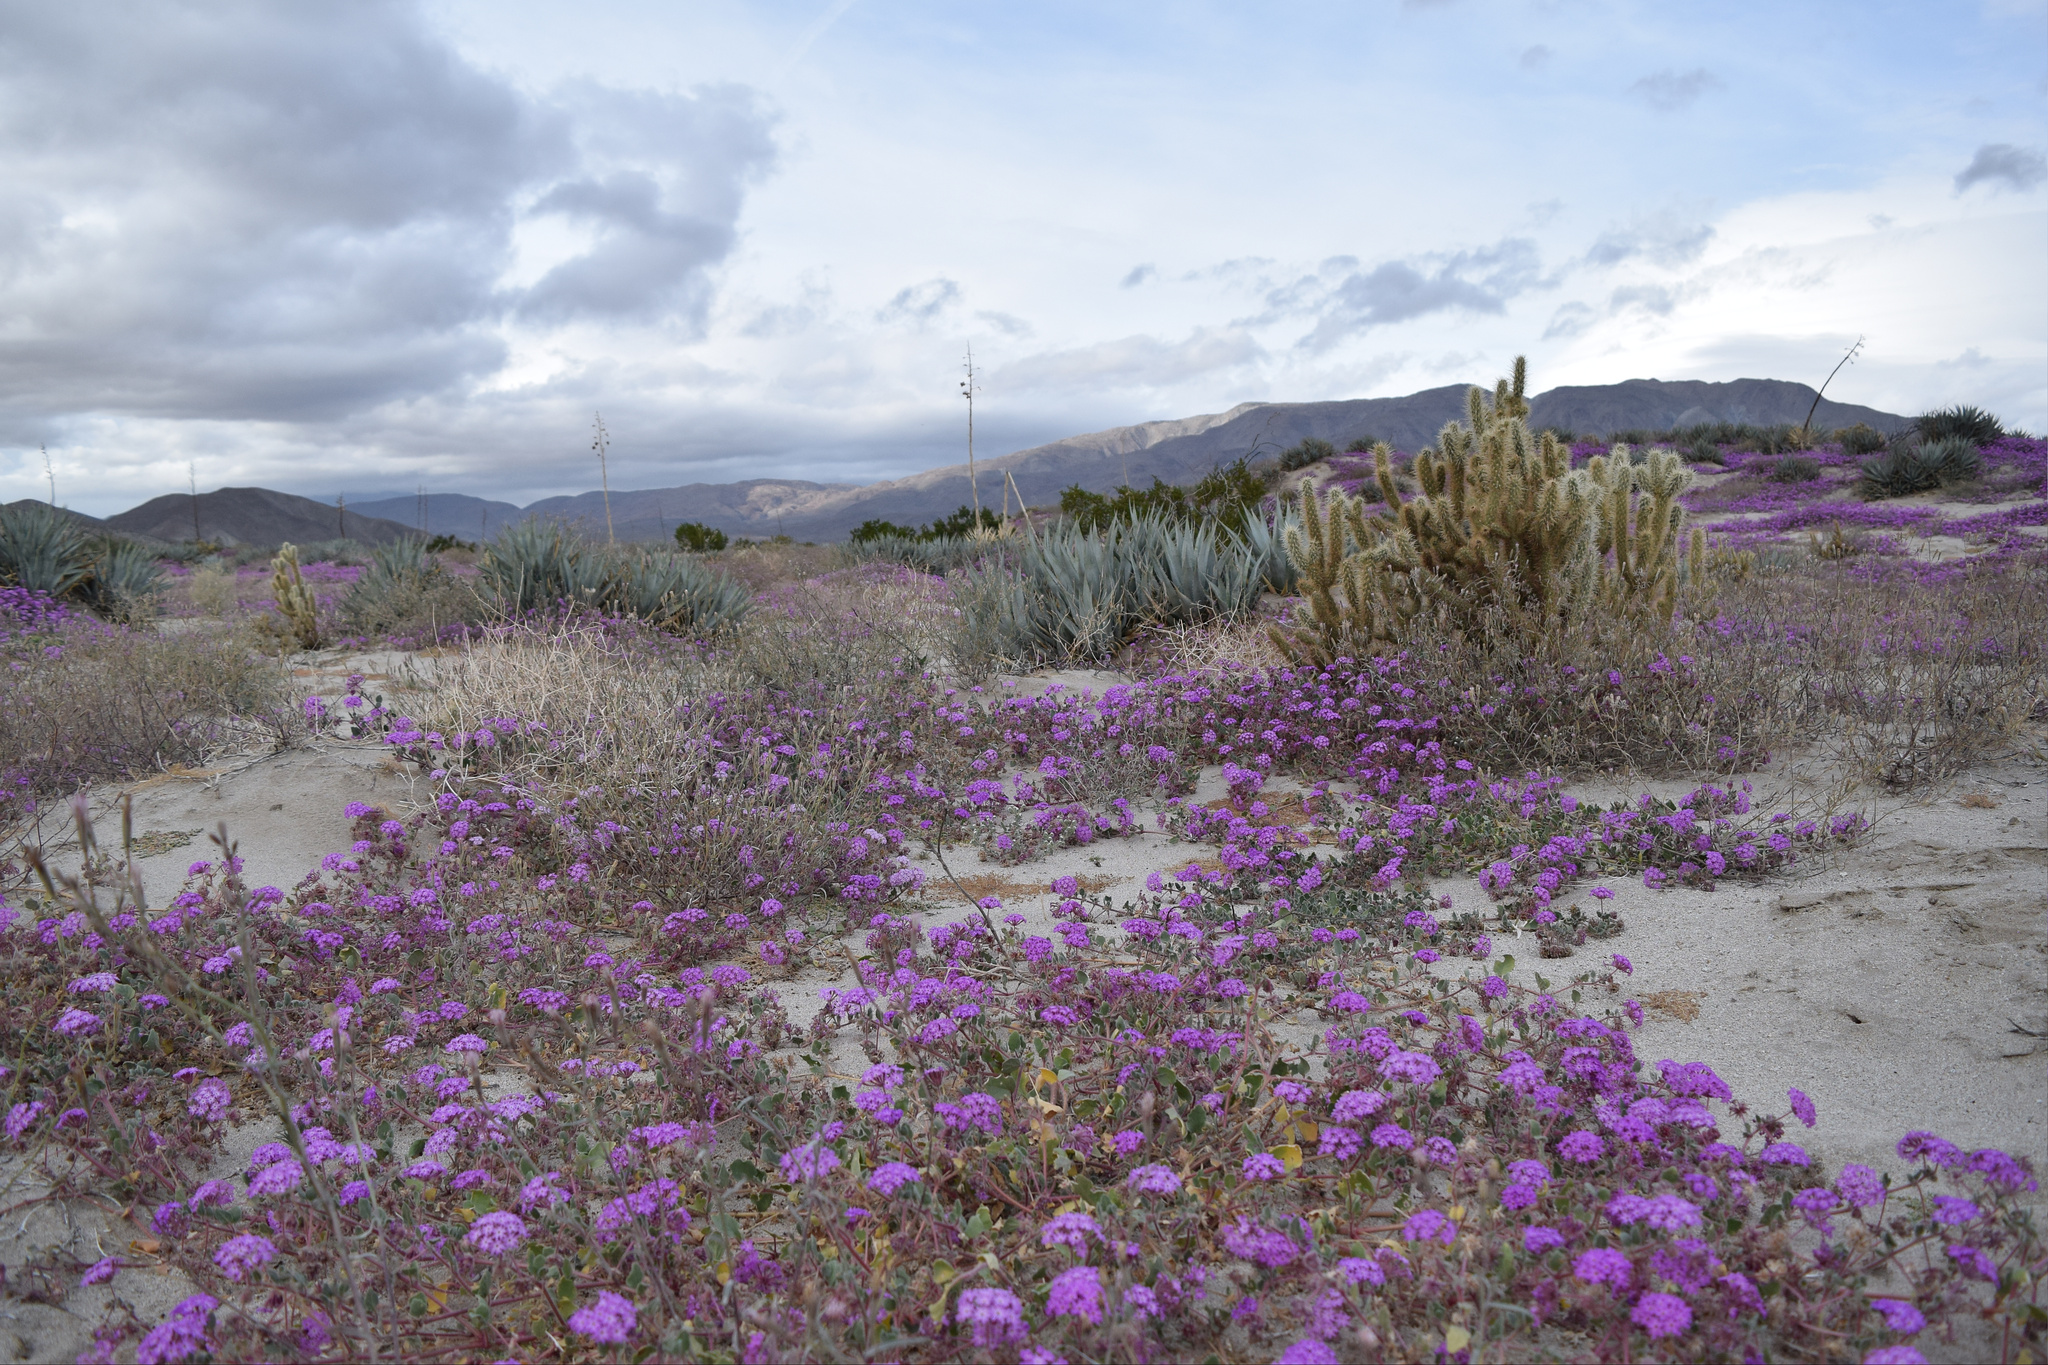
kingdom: Plantae
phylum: Tracheophyta
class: Magnoliopsida
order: Caryophyllales
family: Nyctaginaceae
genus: Abronia
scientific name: Abronia villosa
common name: Desert sand-verbena
